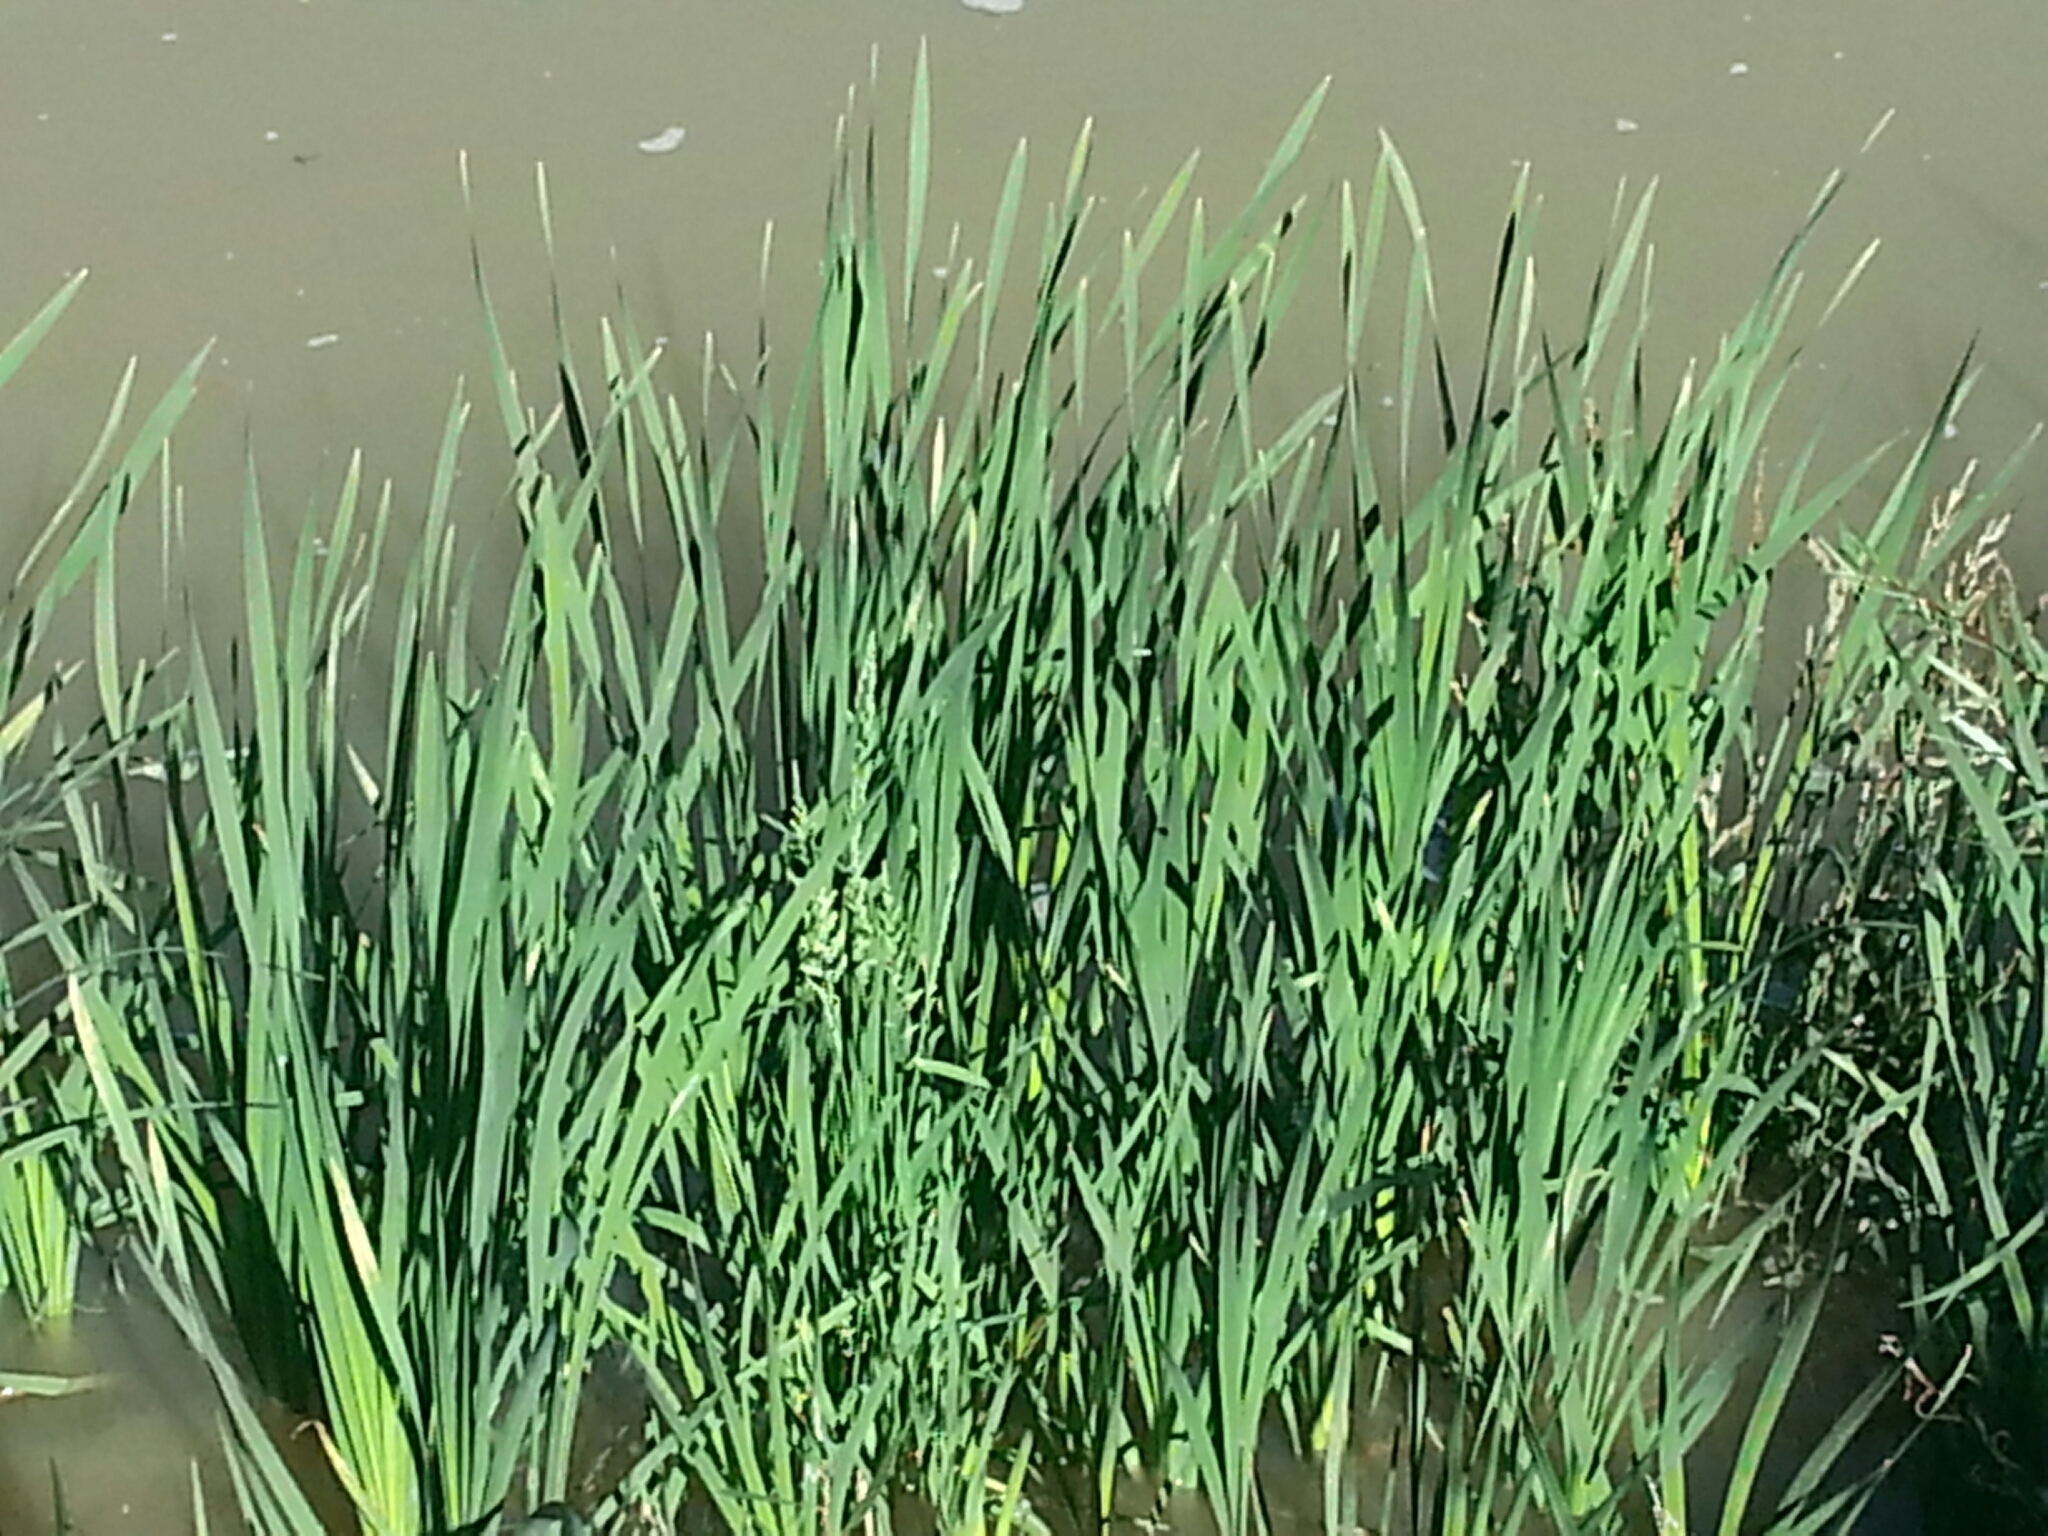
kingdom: Plantae
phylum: Tracheophyta
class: Liliopsida
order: Poales
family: Typhaceae
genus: Typha
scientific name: Typha latifolia
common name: Broadleaf cattail
